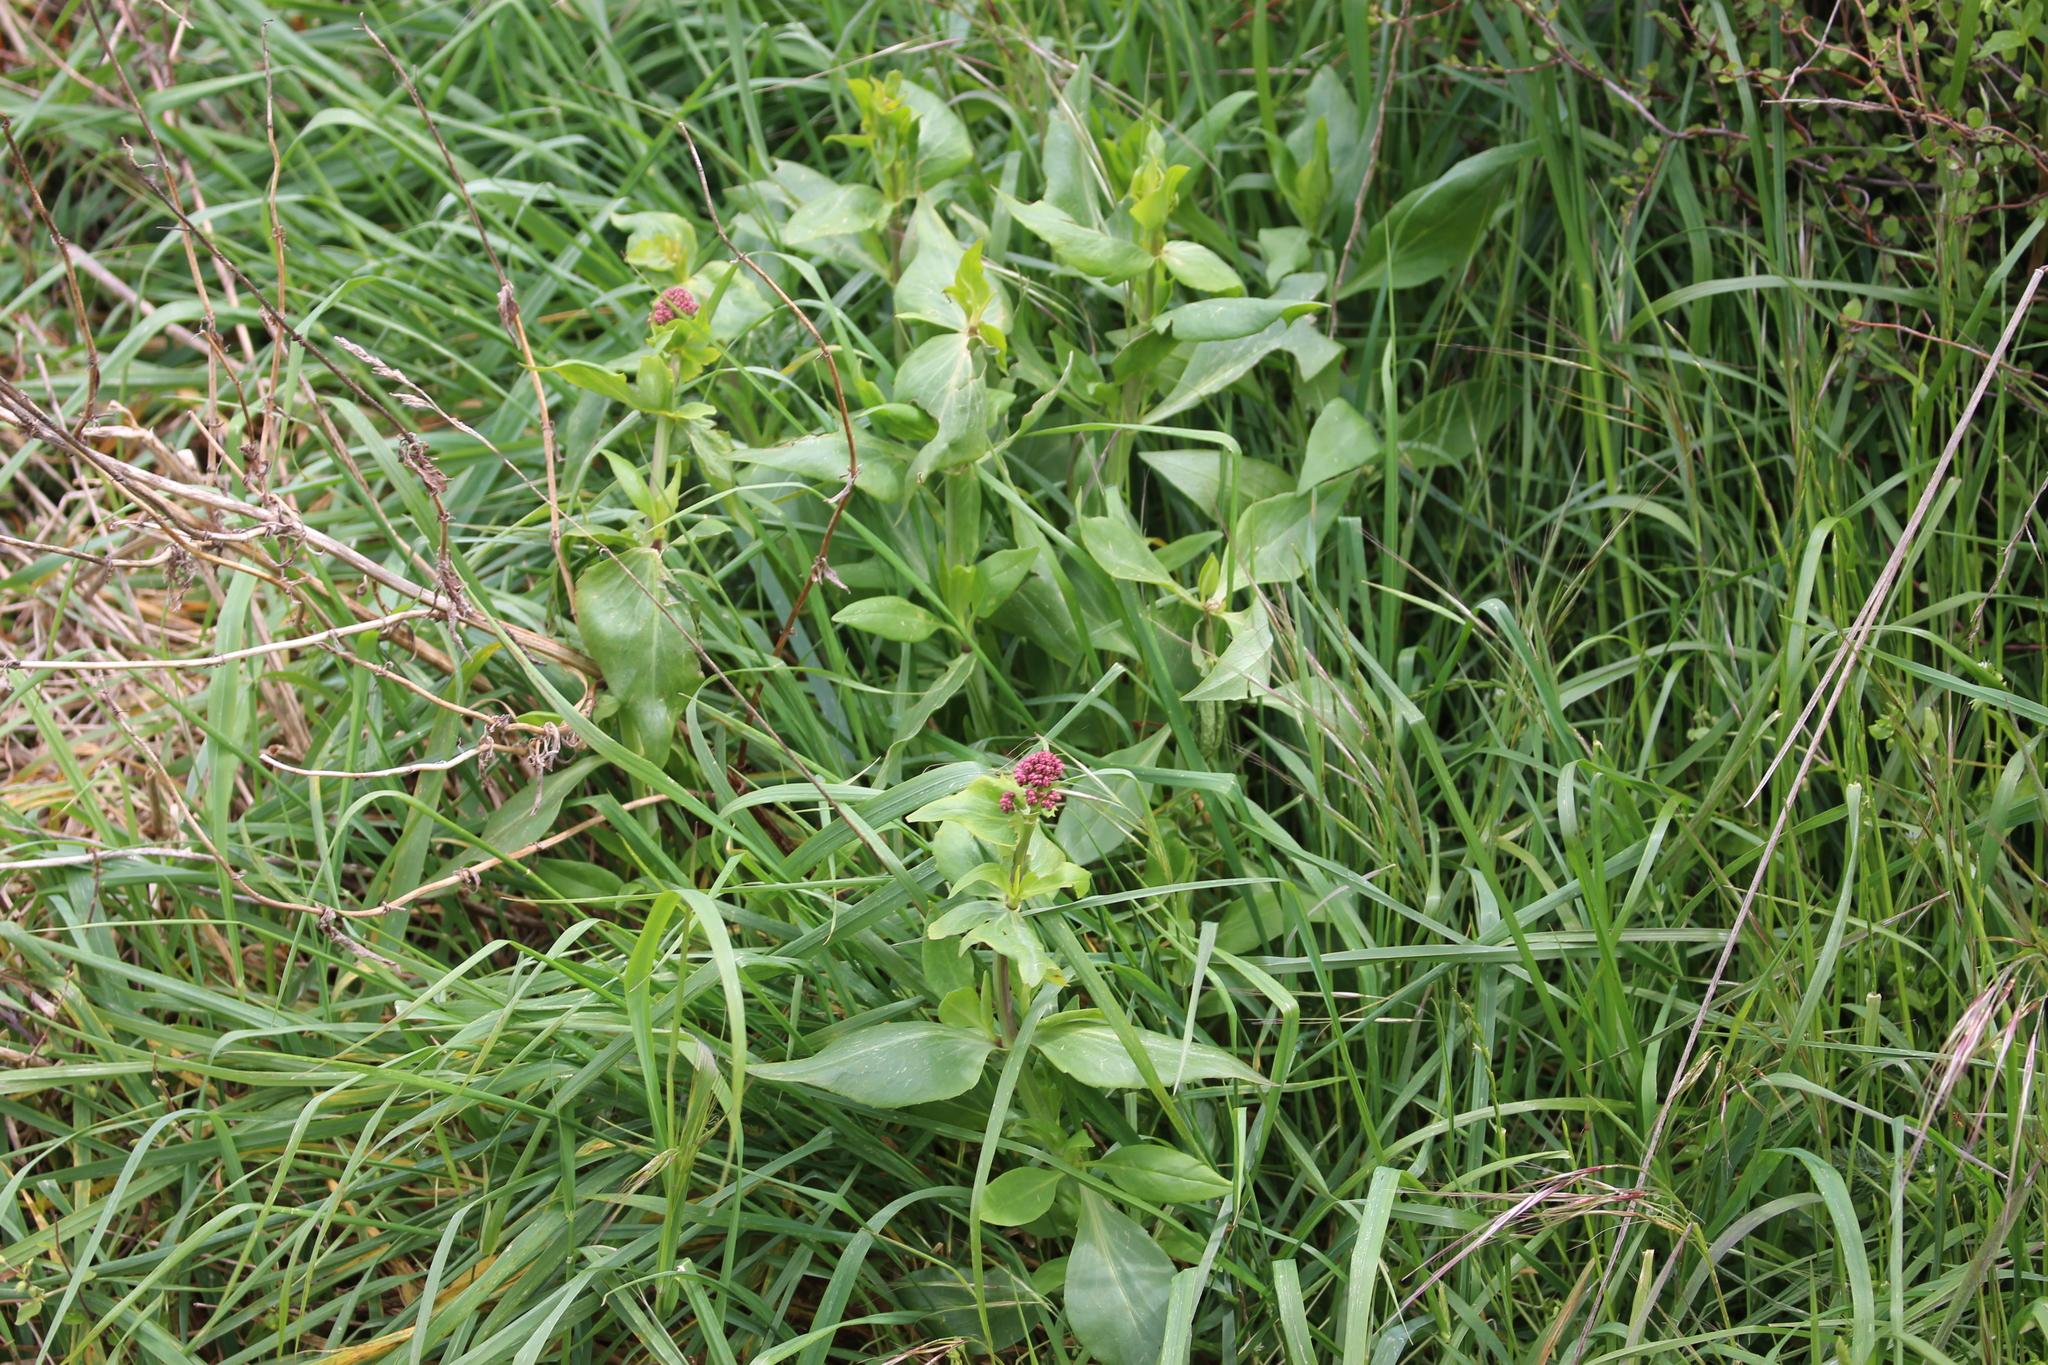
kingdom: Plantae
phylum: Tracheophyta
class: Magnoliopsida
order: Dipsacales
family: Caprifoliaceae
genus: Centranthus
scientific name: Centranthus ruber
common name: Red valerian
